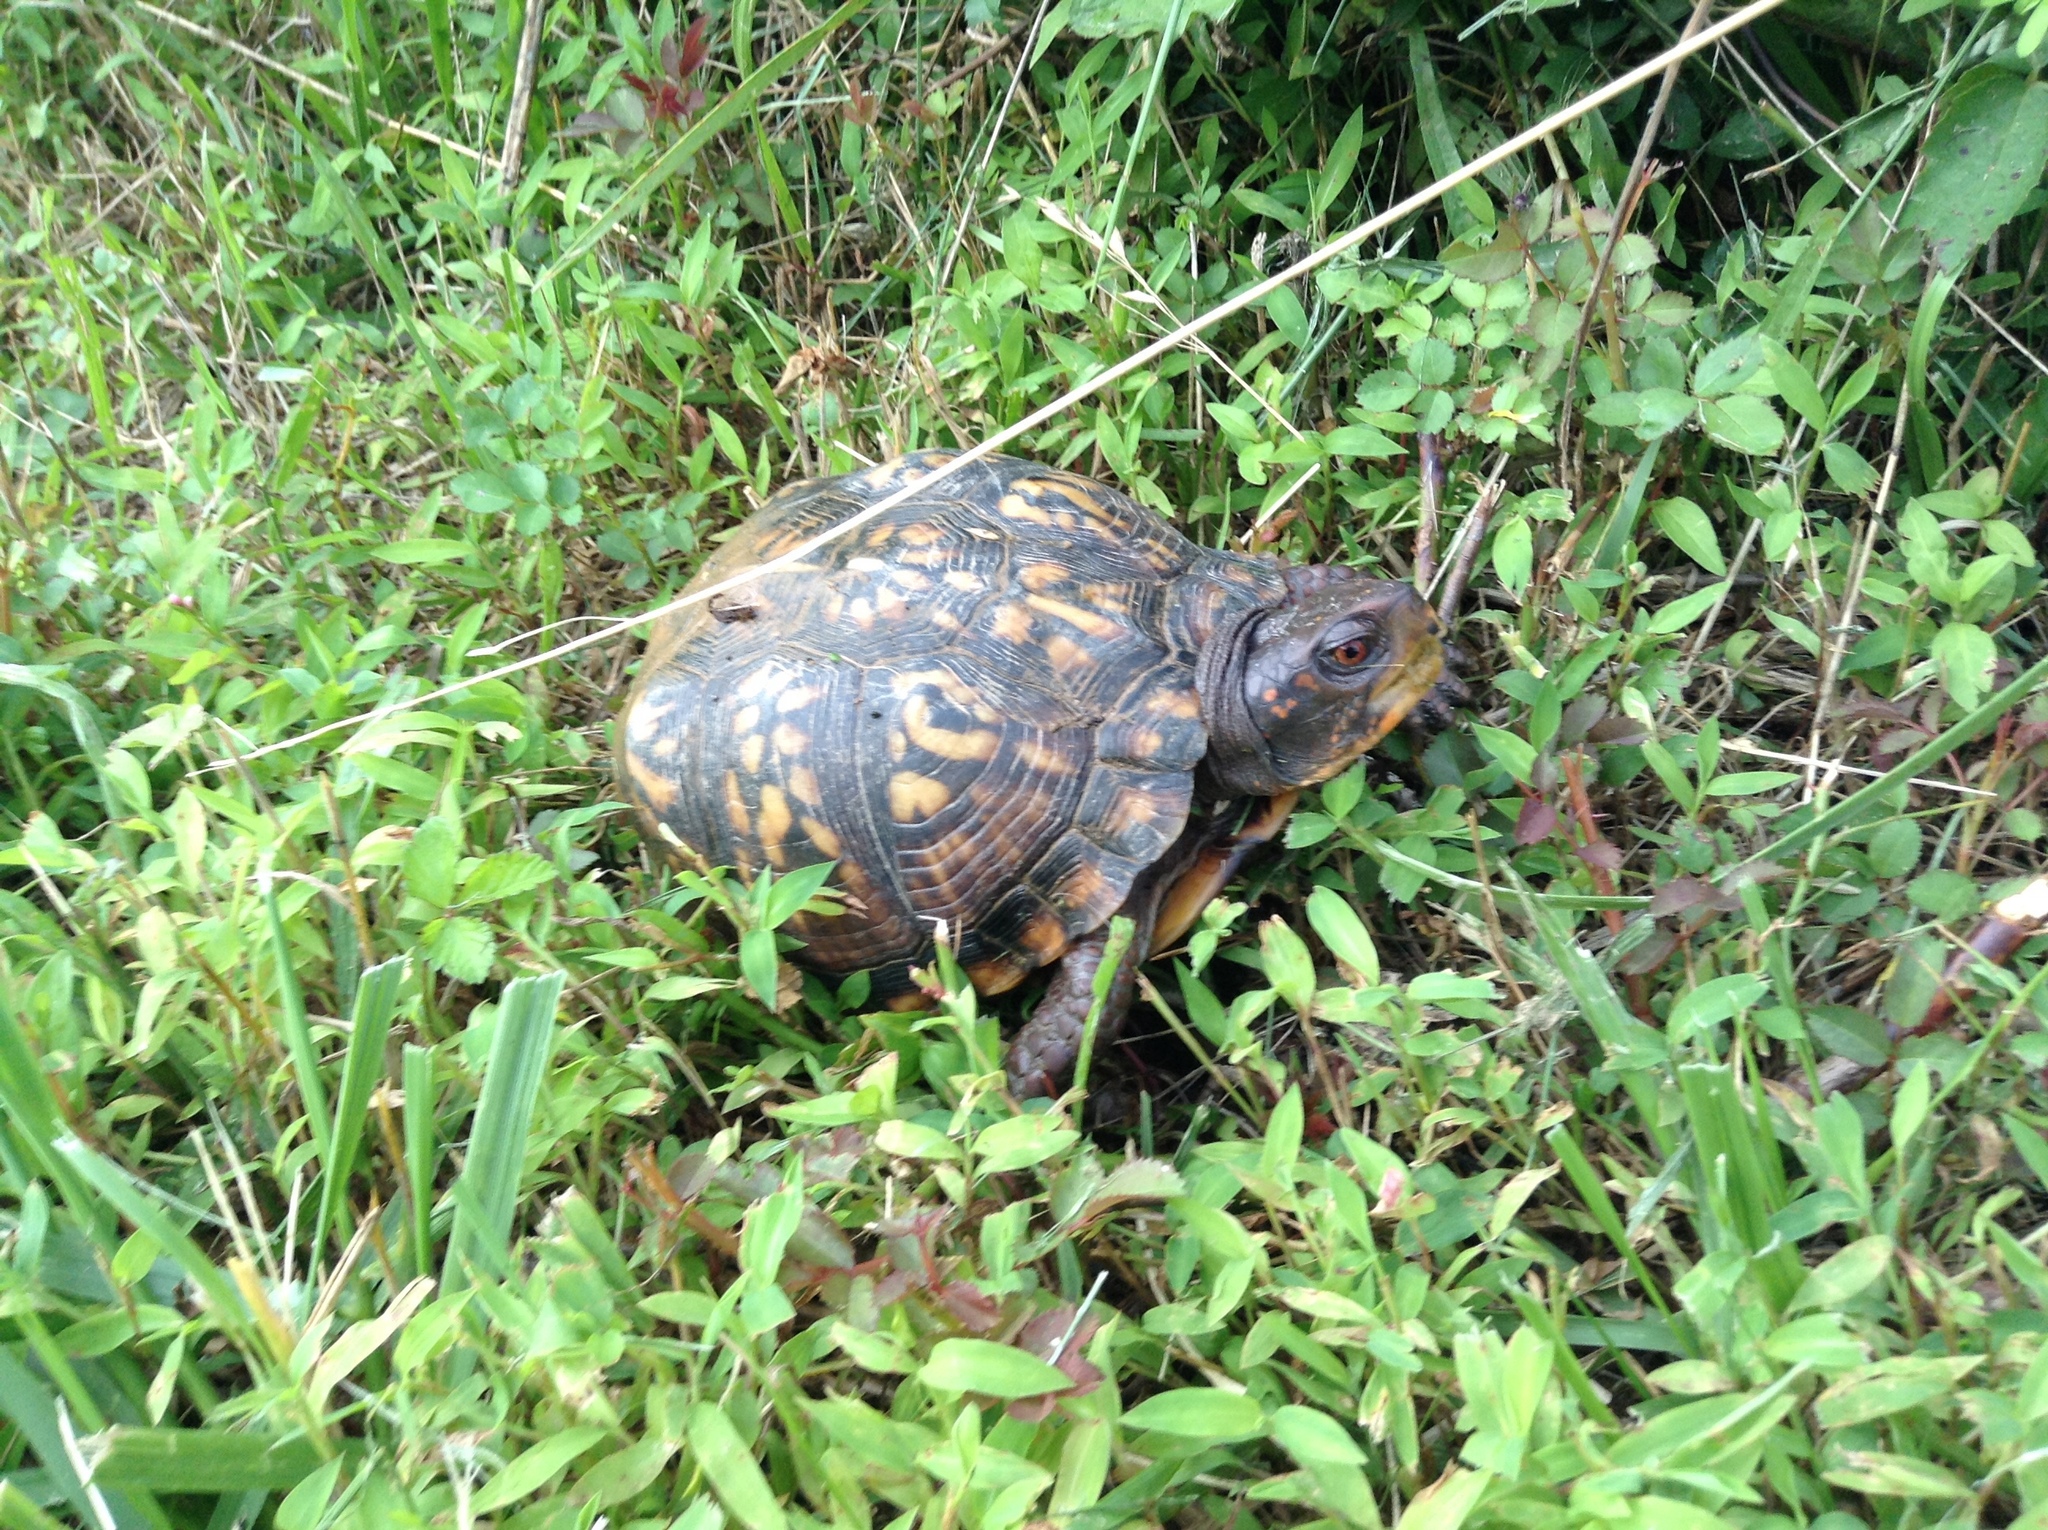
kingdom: Animalia
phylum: Chordata
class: Testudines
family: Emydidae
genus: Terrapene
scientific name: Terrapene carolina
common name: Common box turtle
